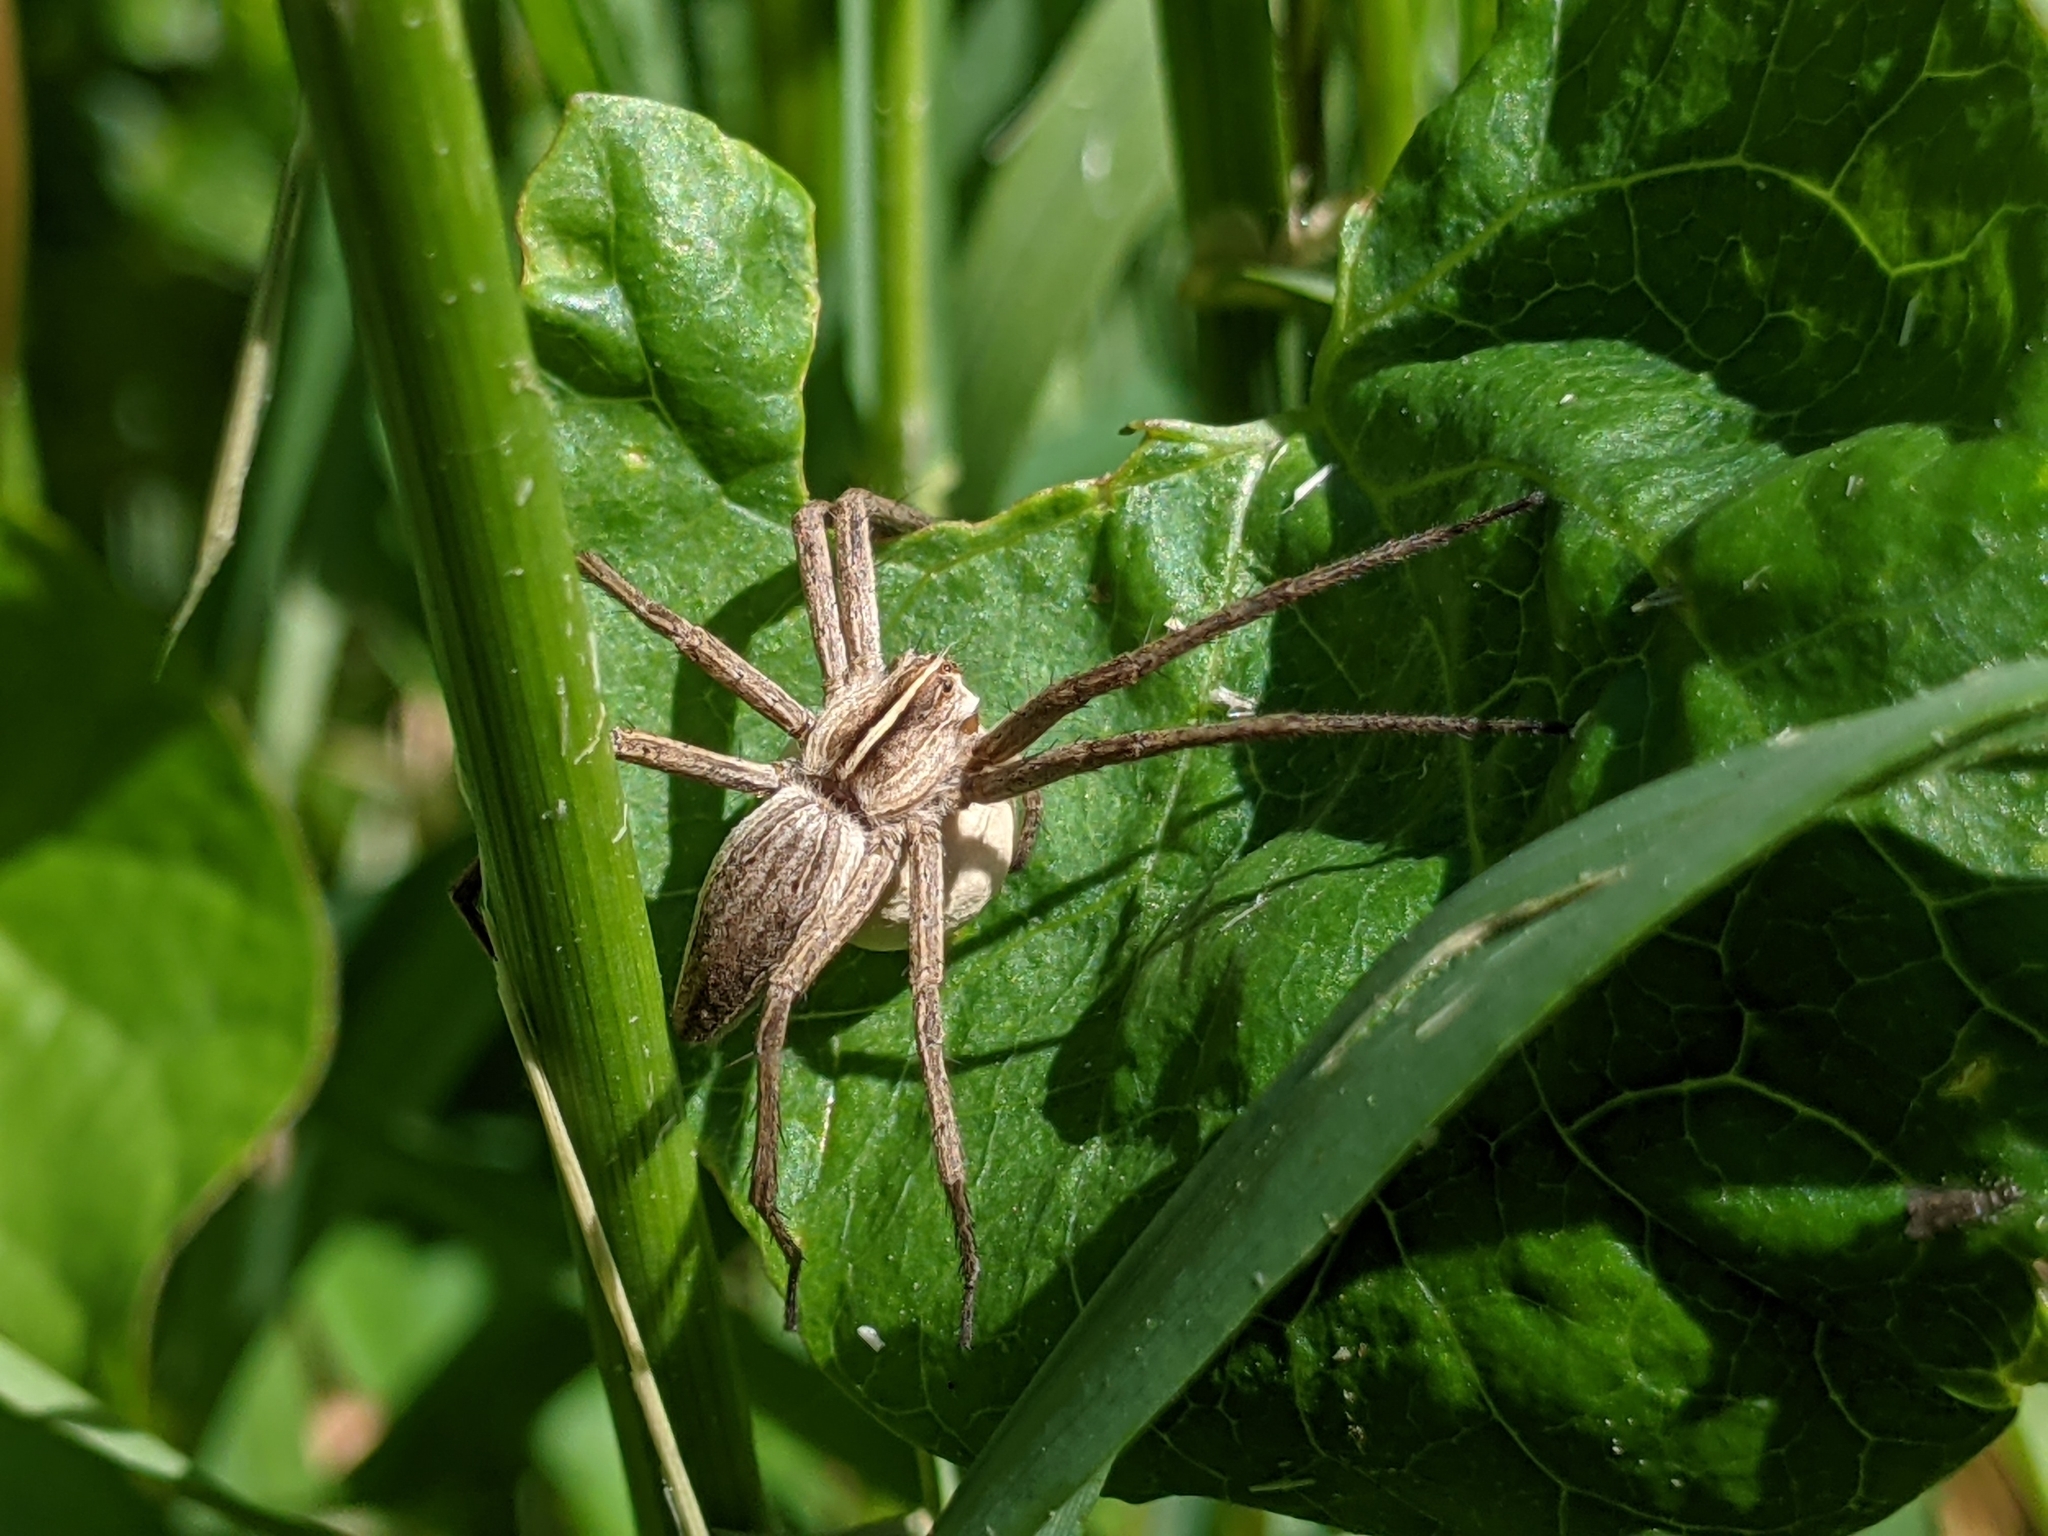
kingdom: Animalia
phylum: Arthropoda
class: Arachnida
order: Araneae
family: Pisauridae
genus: Pisaura
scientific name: Pisaura mirabilis
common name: Tent spider
